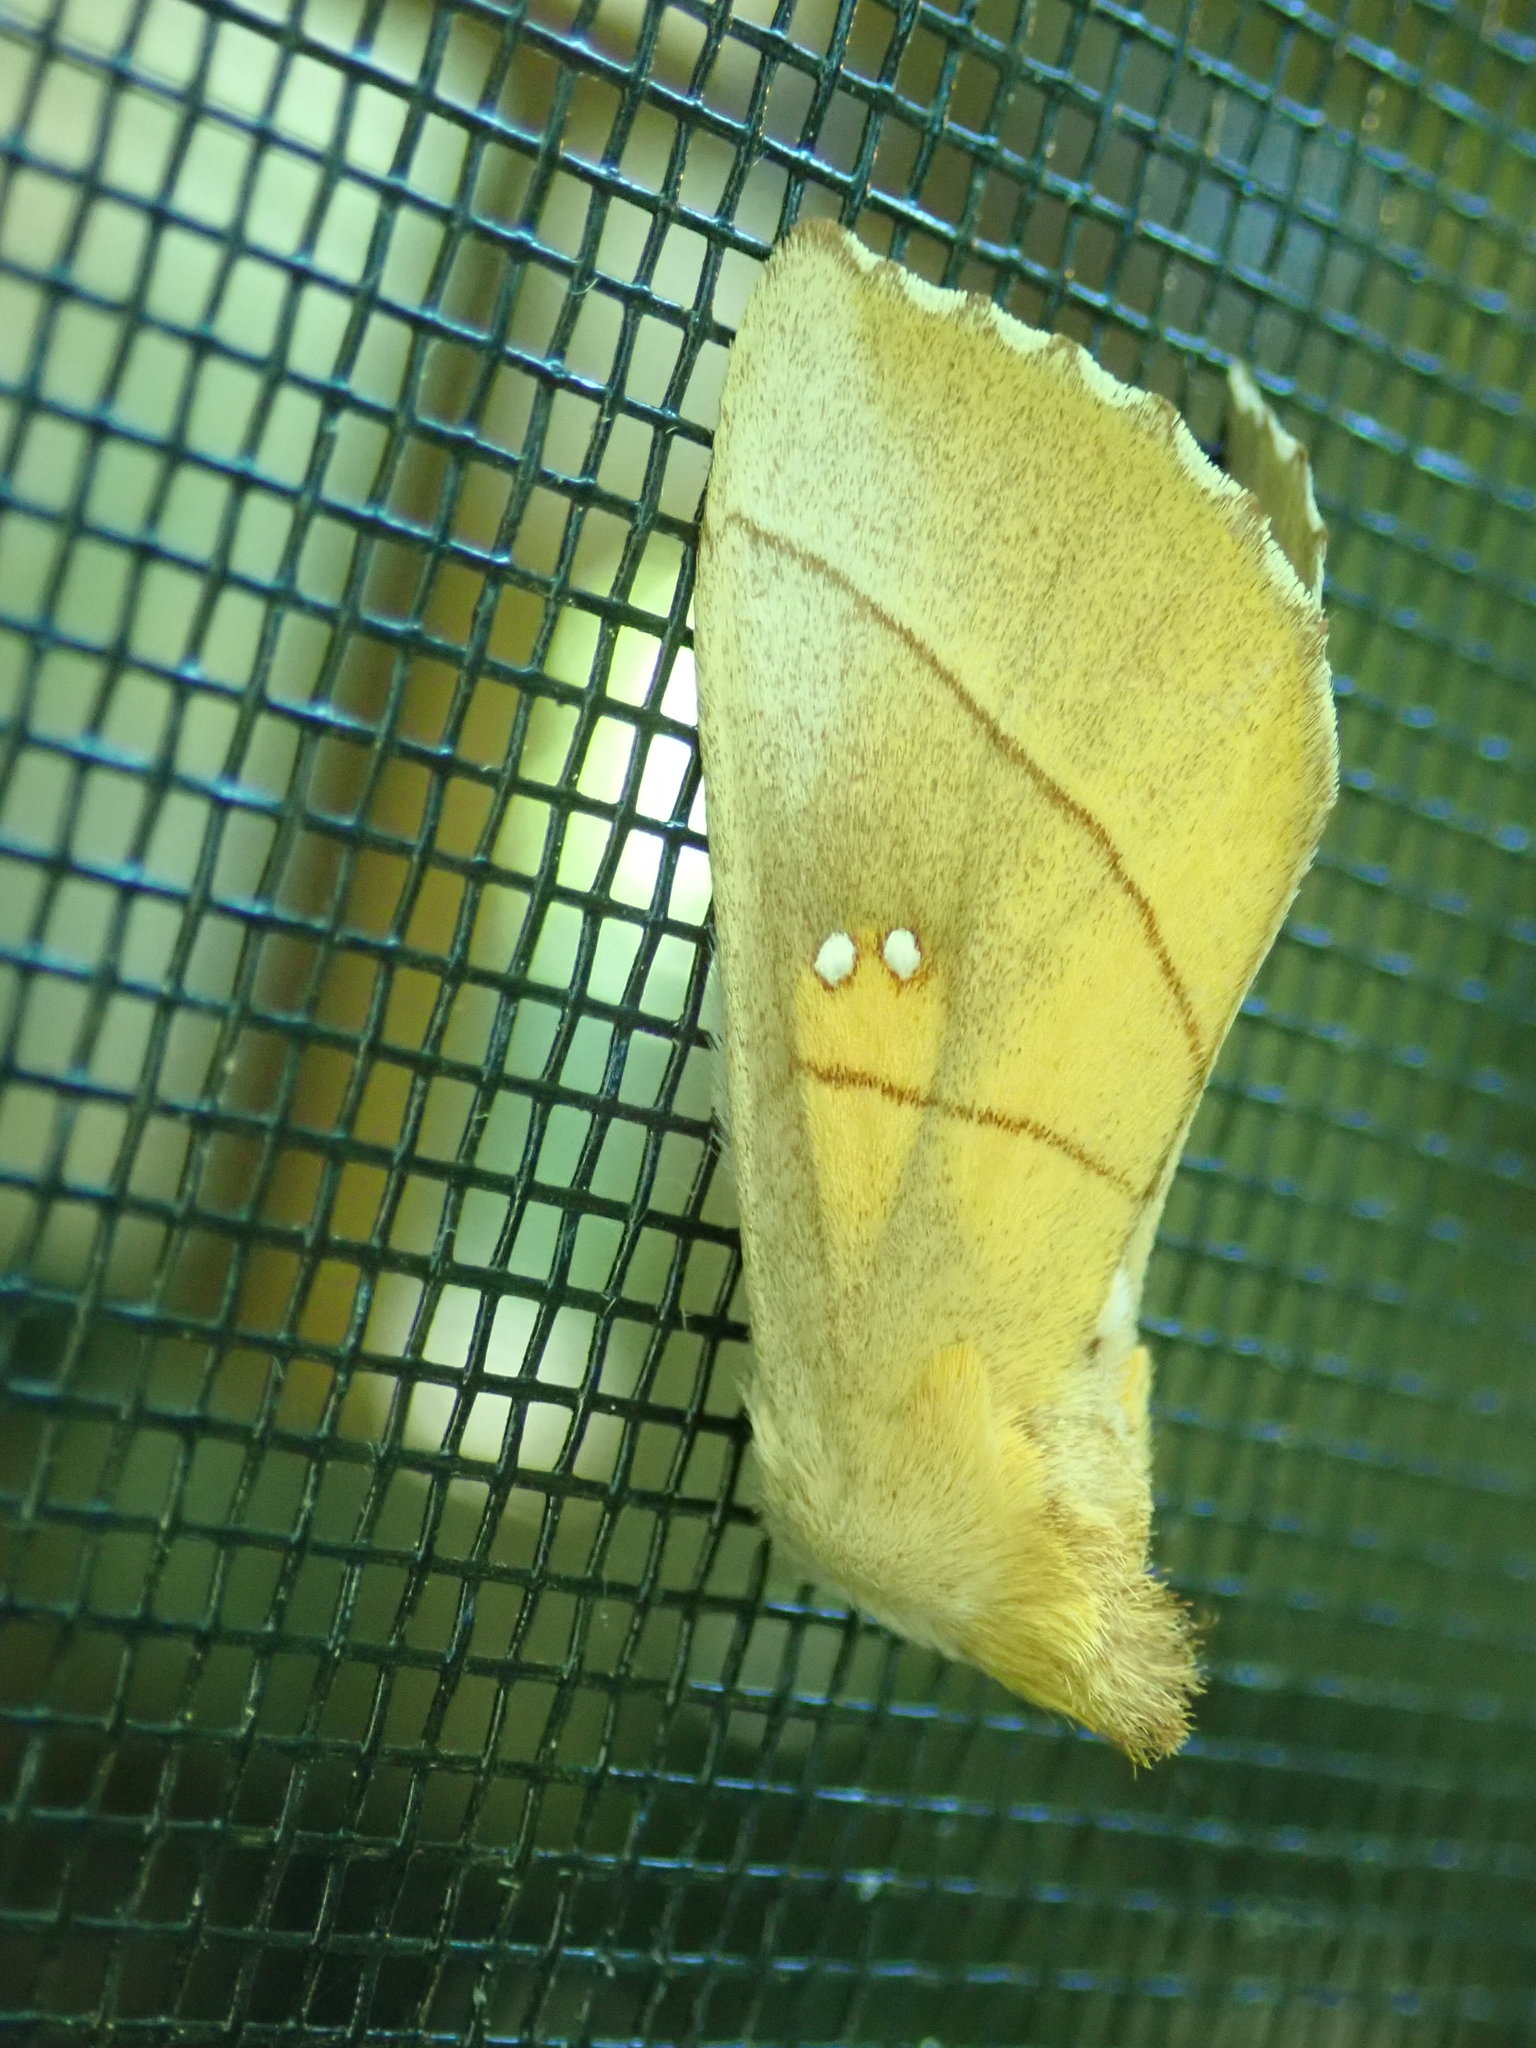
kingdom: Animalia
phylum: Arthropoda
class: Insecta
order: Lepidoptera
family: Notodontidae
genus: Nadata
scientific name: Nadata gibbosa
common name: White-dotted prominent
